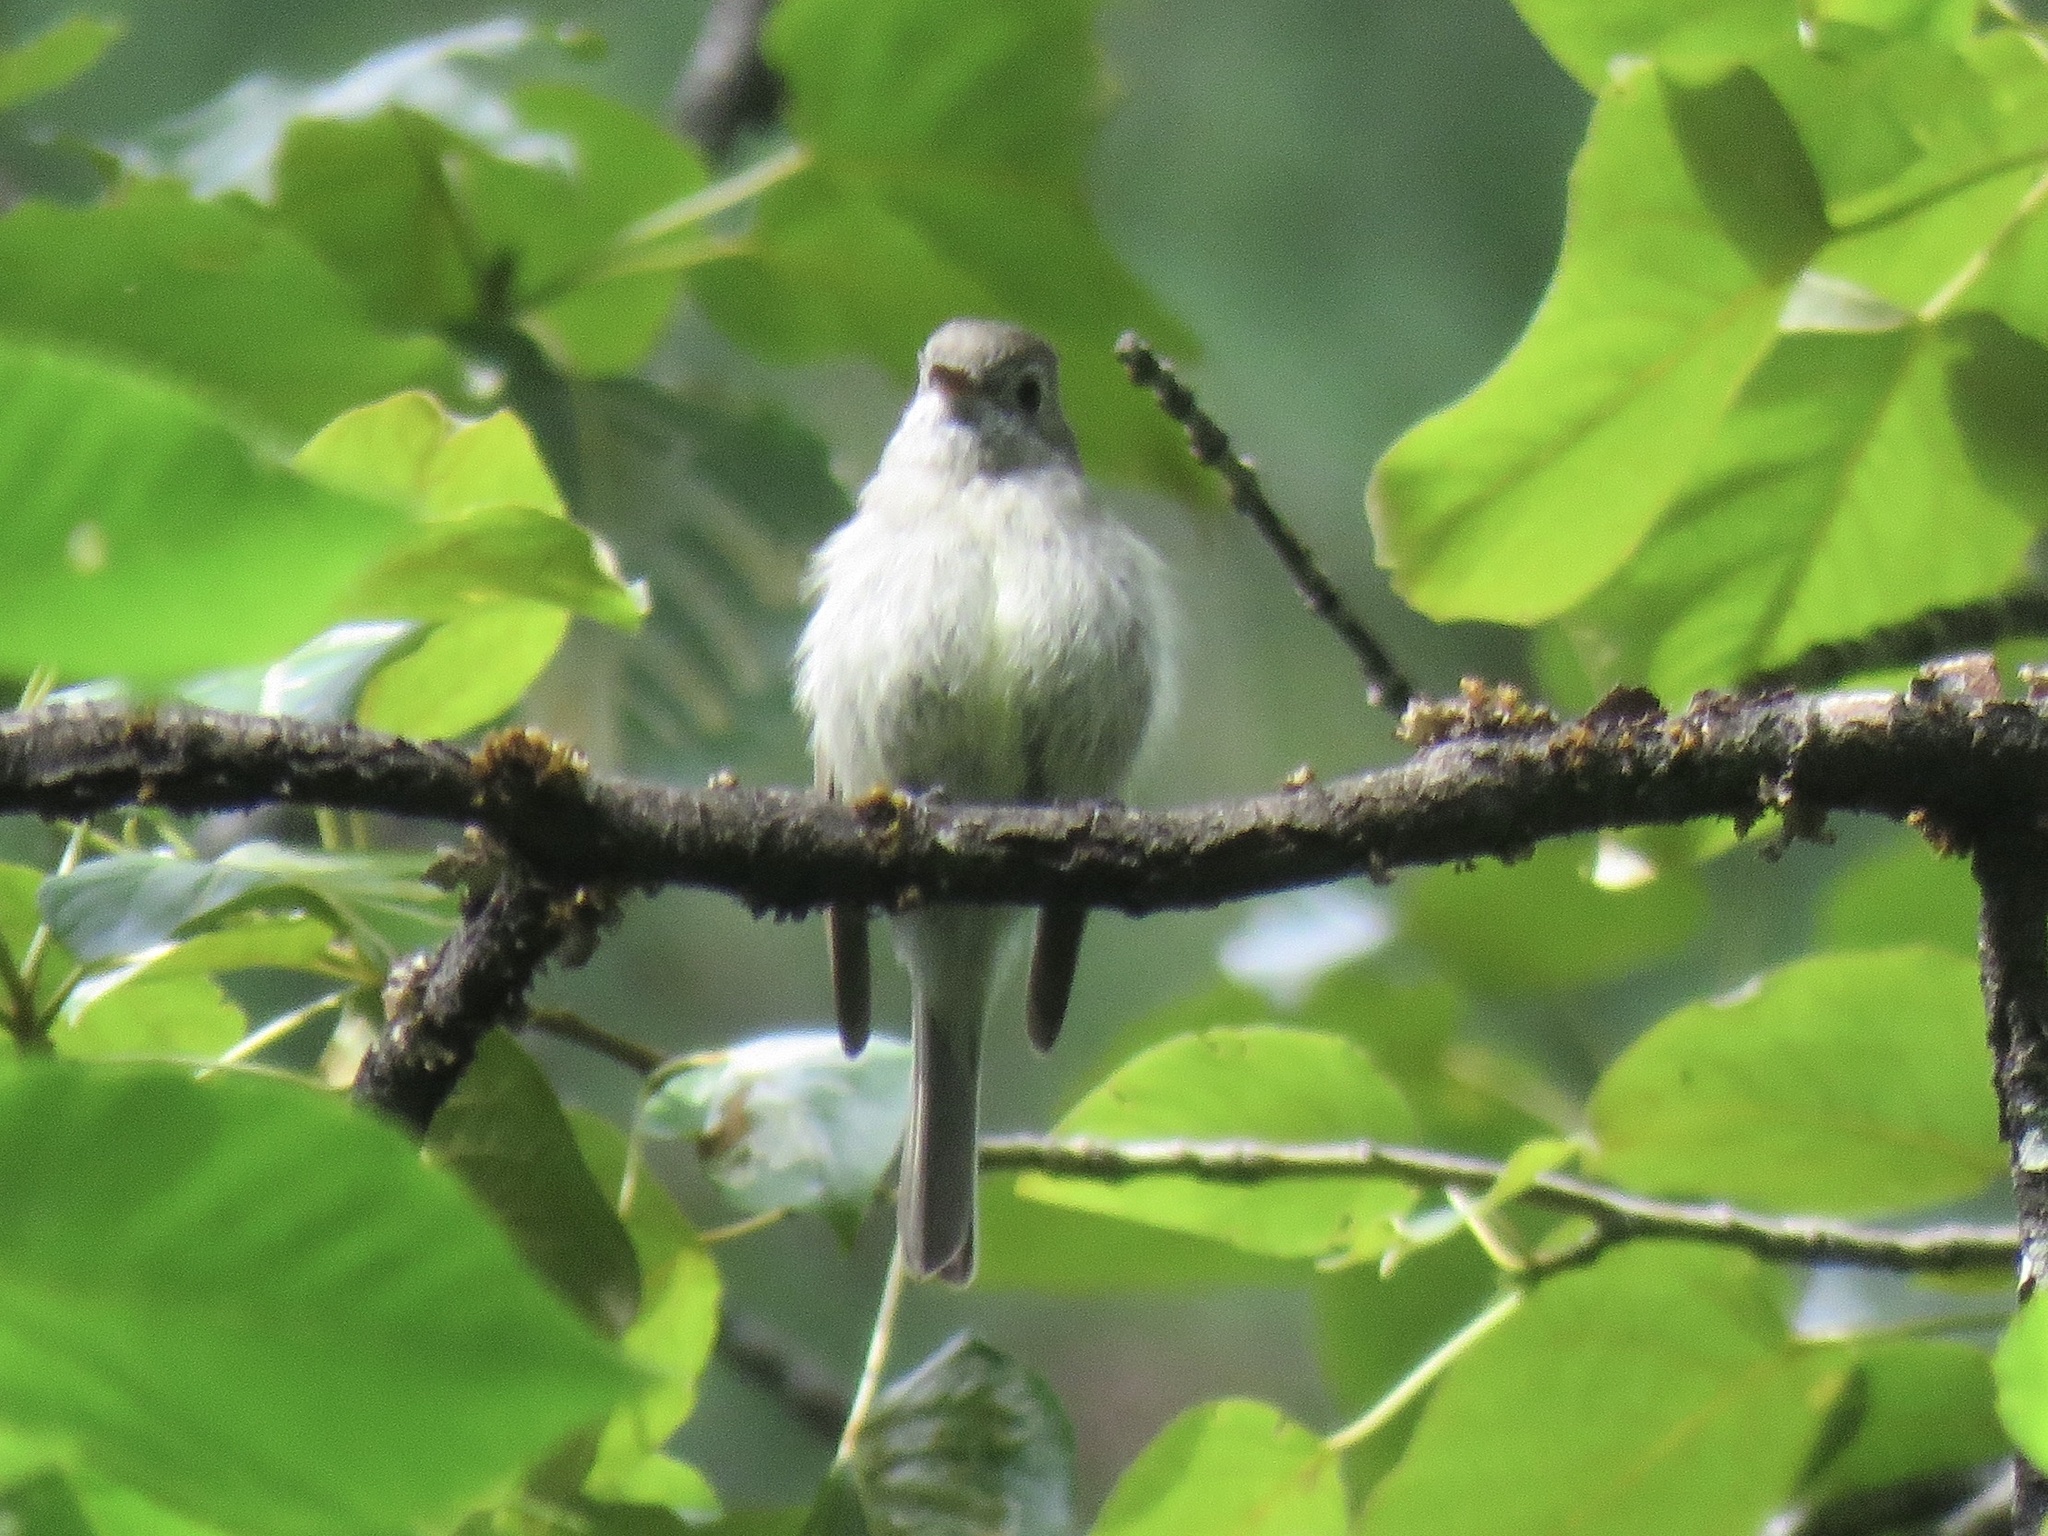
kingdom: Animalia
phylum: Chordata
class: Aves
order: Passeriformes
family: Tyrannidae
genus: Empidonax
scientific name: Empidonax hammondii
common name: Hammond's flycatcher
